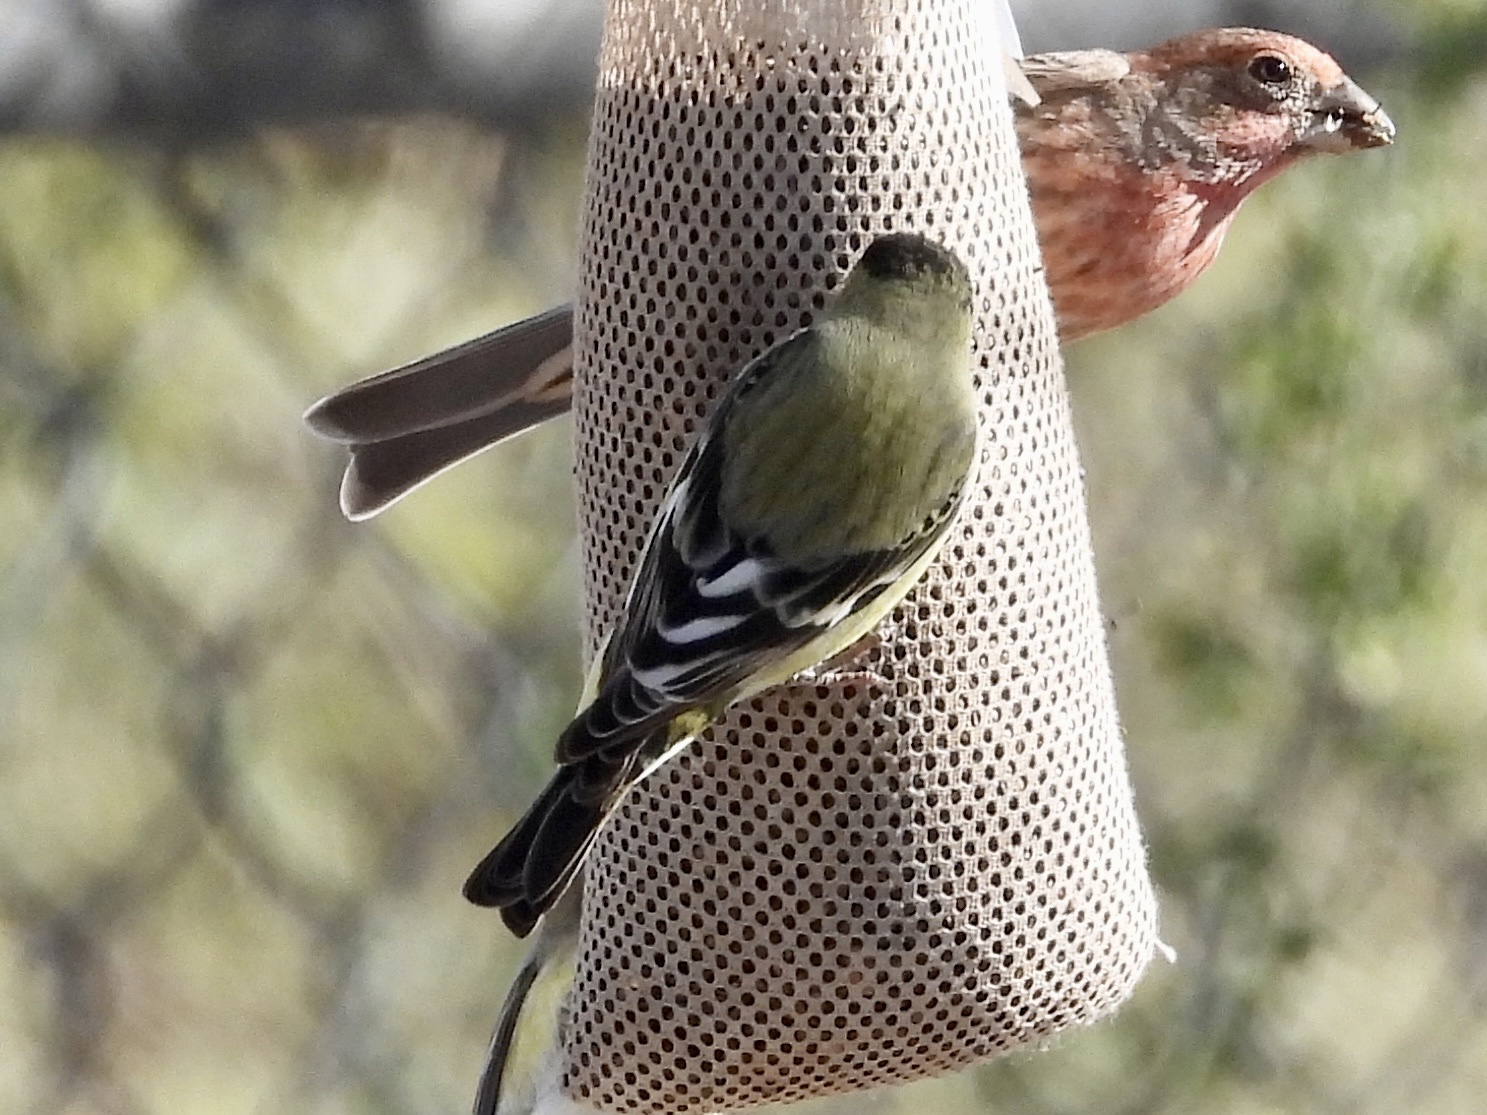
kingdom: Animalia
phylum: Chordata
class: Aves
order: Passeriformes
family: Fringillidae
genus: Spinus
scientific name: Spinus psaltria
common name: Lesser goldfinch
